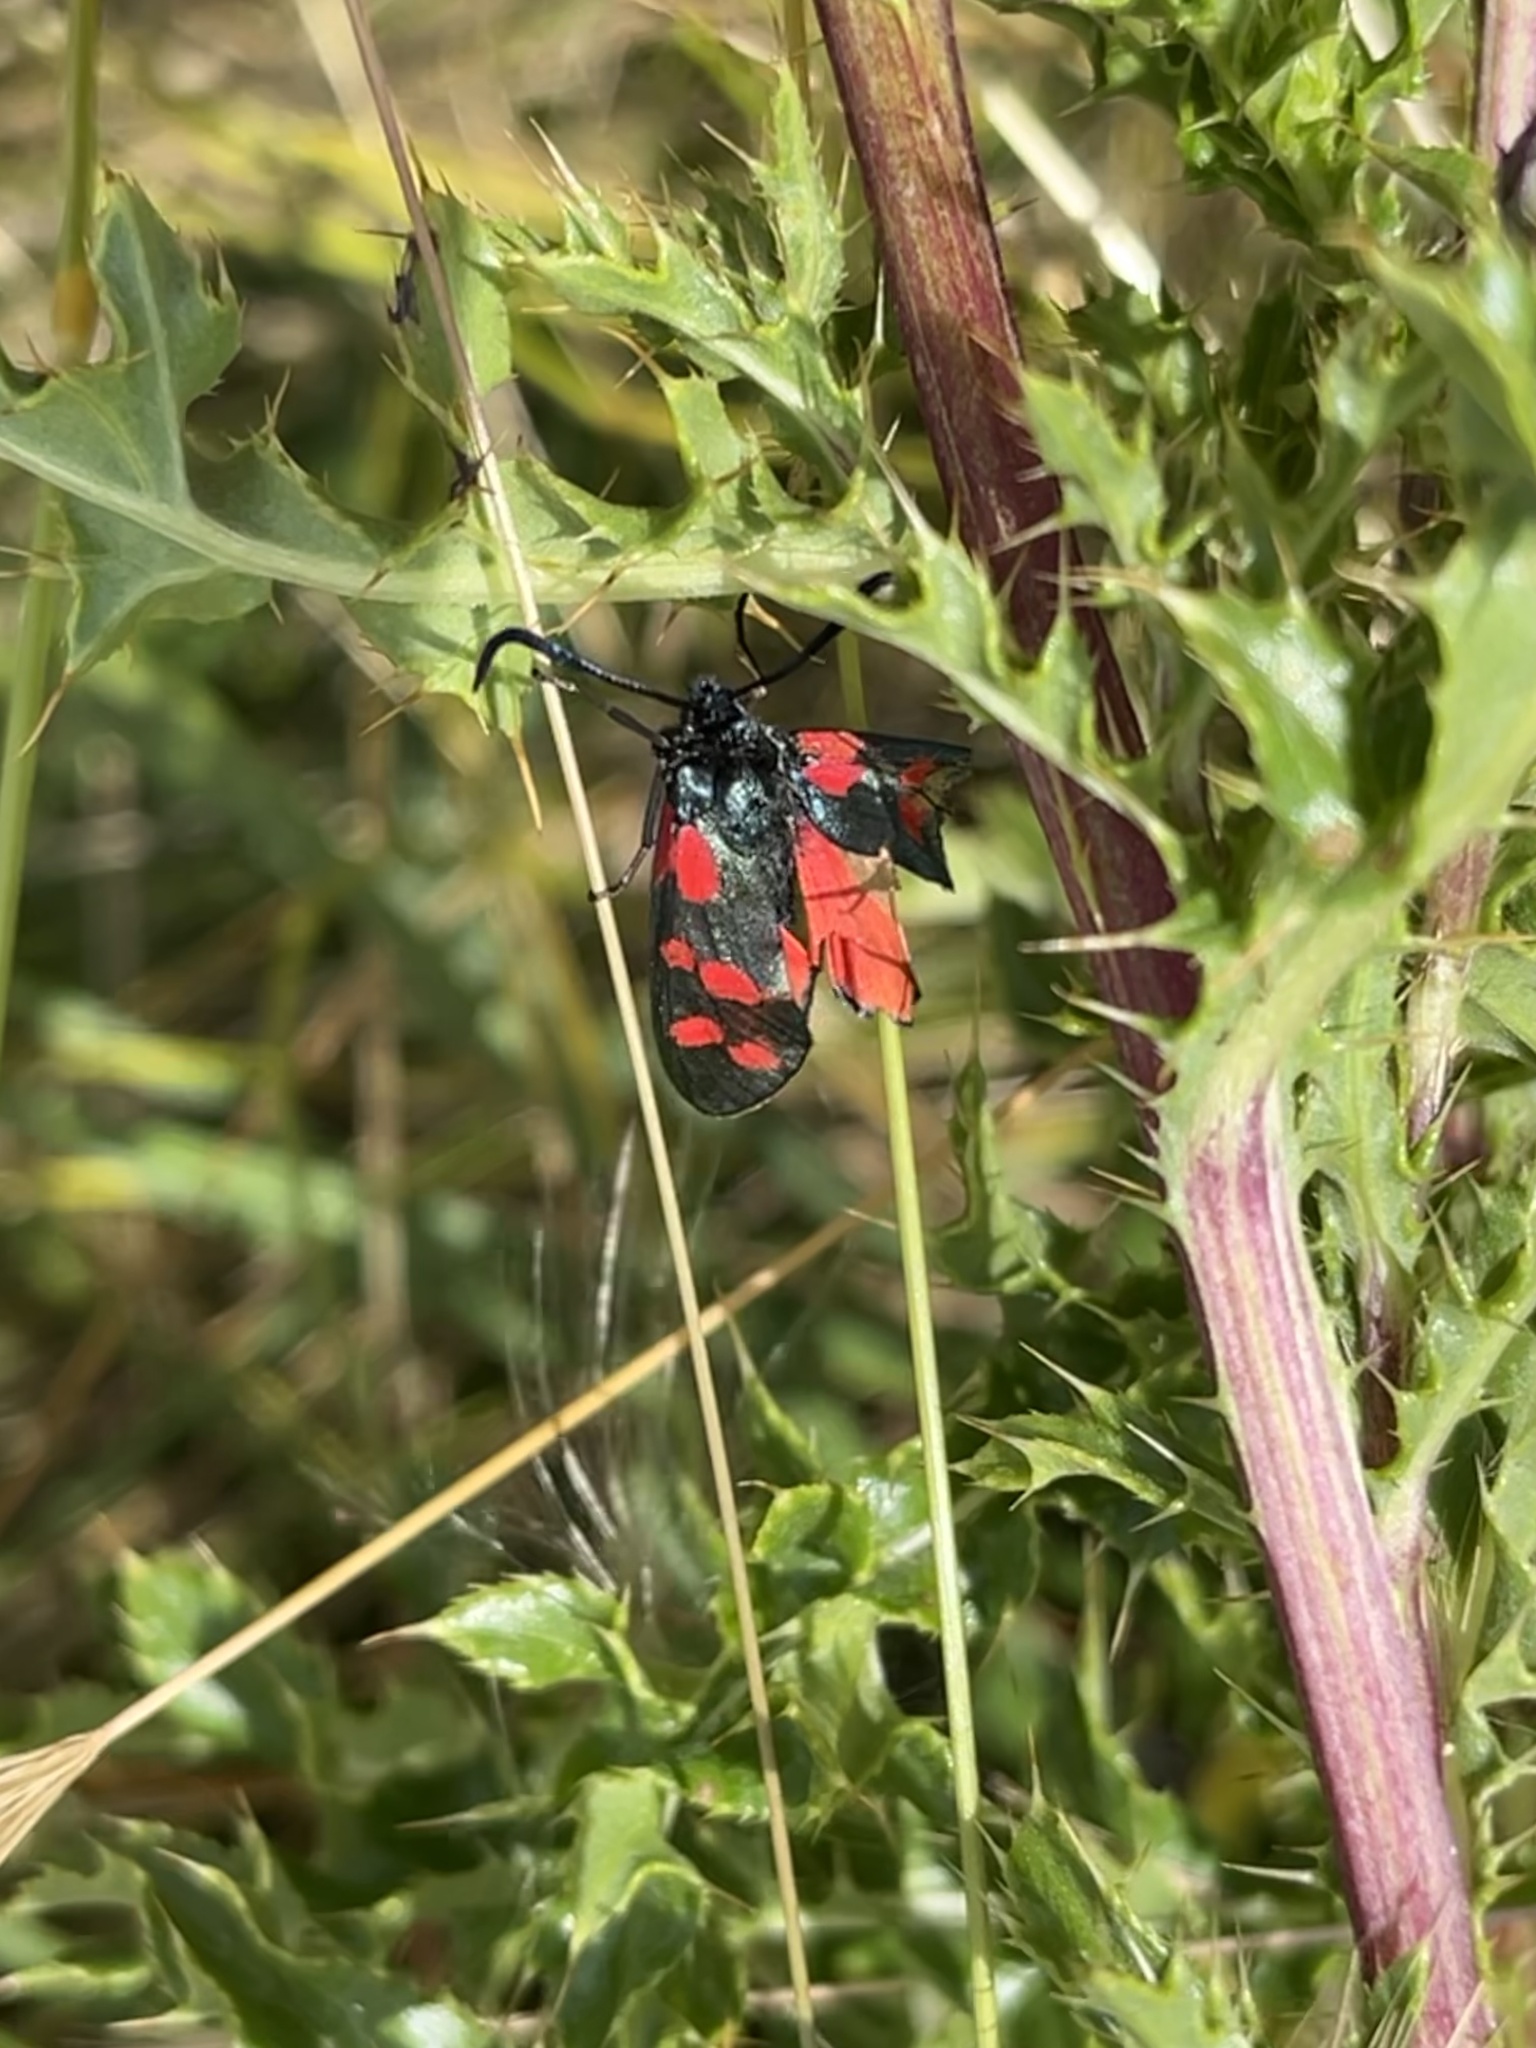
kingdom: Animalia
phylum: Arthropoda
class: Insecta
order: Lepidoptera
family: Zygaenidae
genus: Zygaena
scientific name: Zygaena filipendulae
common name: Six-spot burnet
